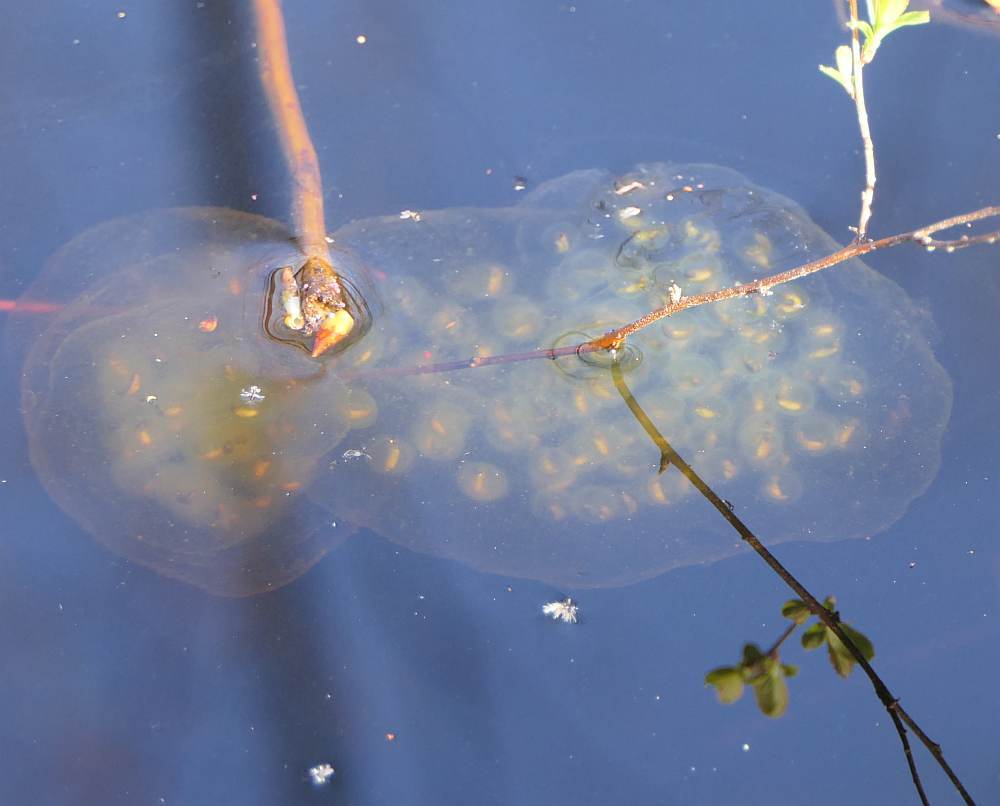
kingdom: Animalia
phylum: Chordata
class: Amphibia
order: Caudata
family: Ambystomatidae
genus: Ambystoma
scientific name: Ambystoma maculatum
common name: Spotted salamander
